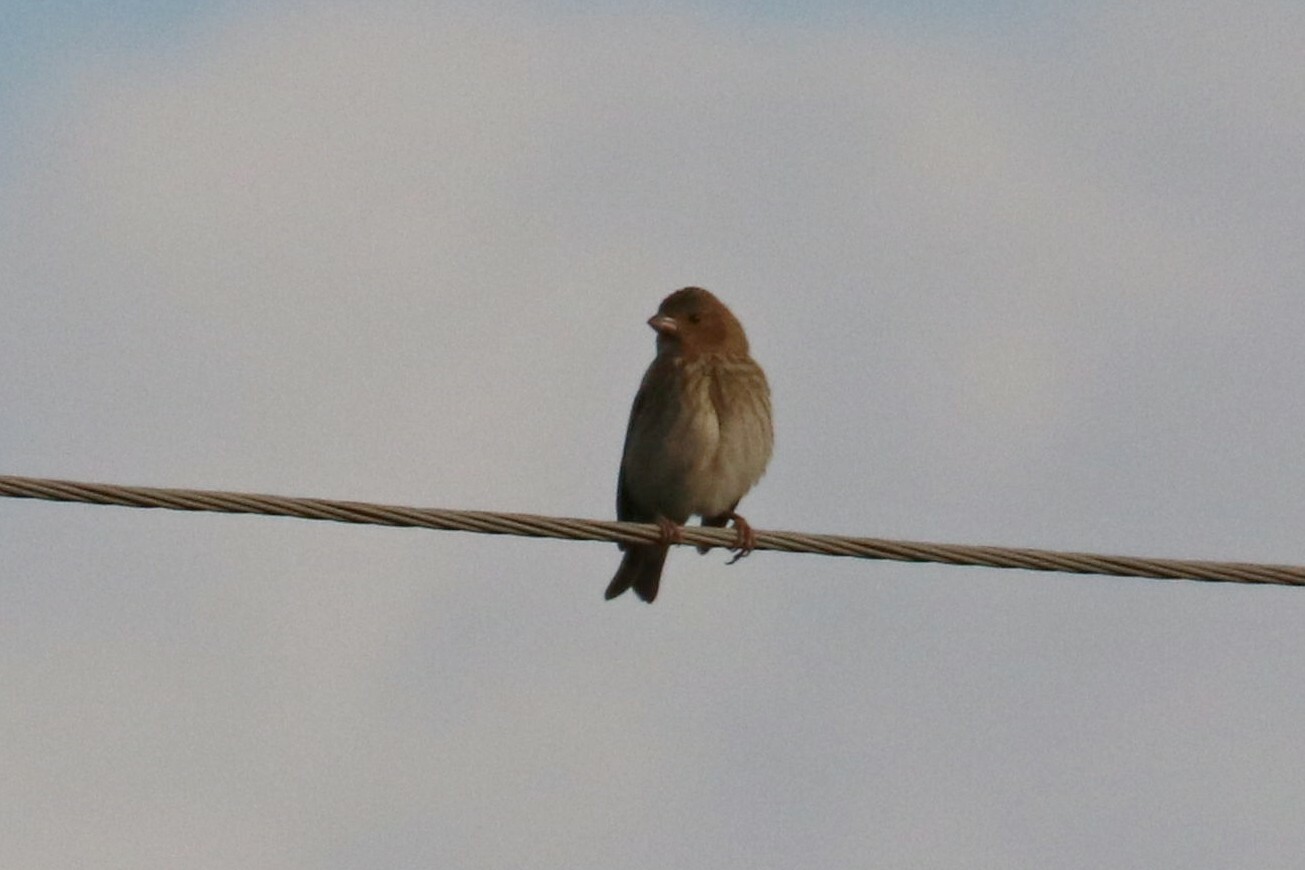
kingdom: Animalia
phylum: Chordata
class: Aves
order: Passeriformes
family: Fringillidae
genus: Carpodacus
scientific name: Carpodacus erythrinus
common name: Common rosefinch
